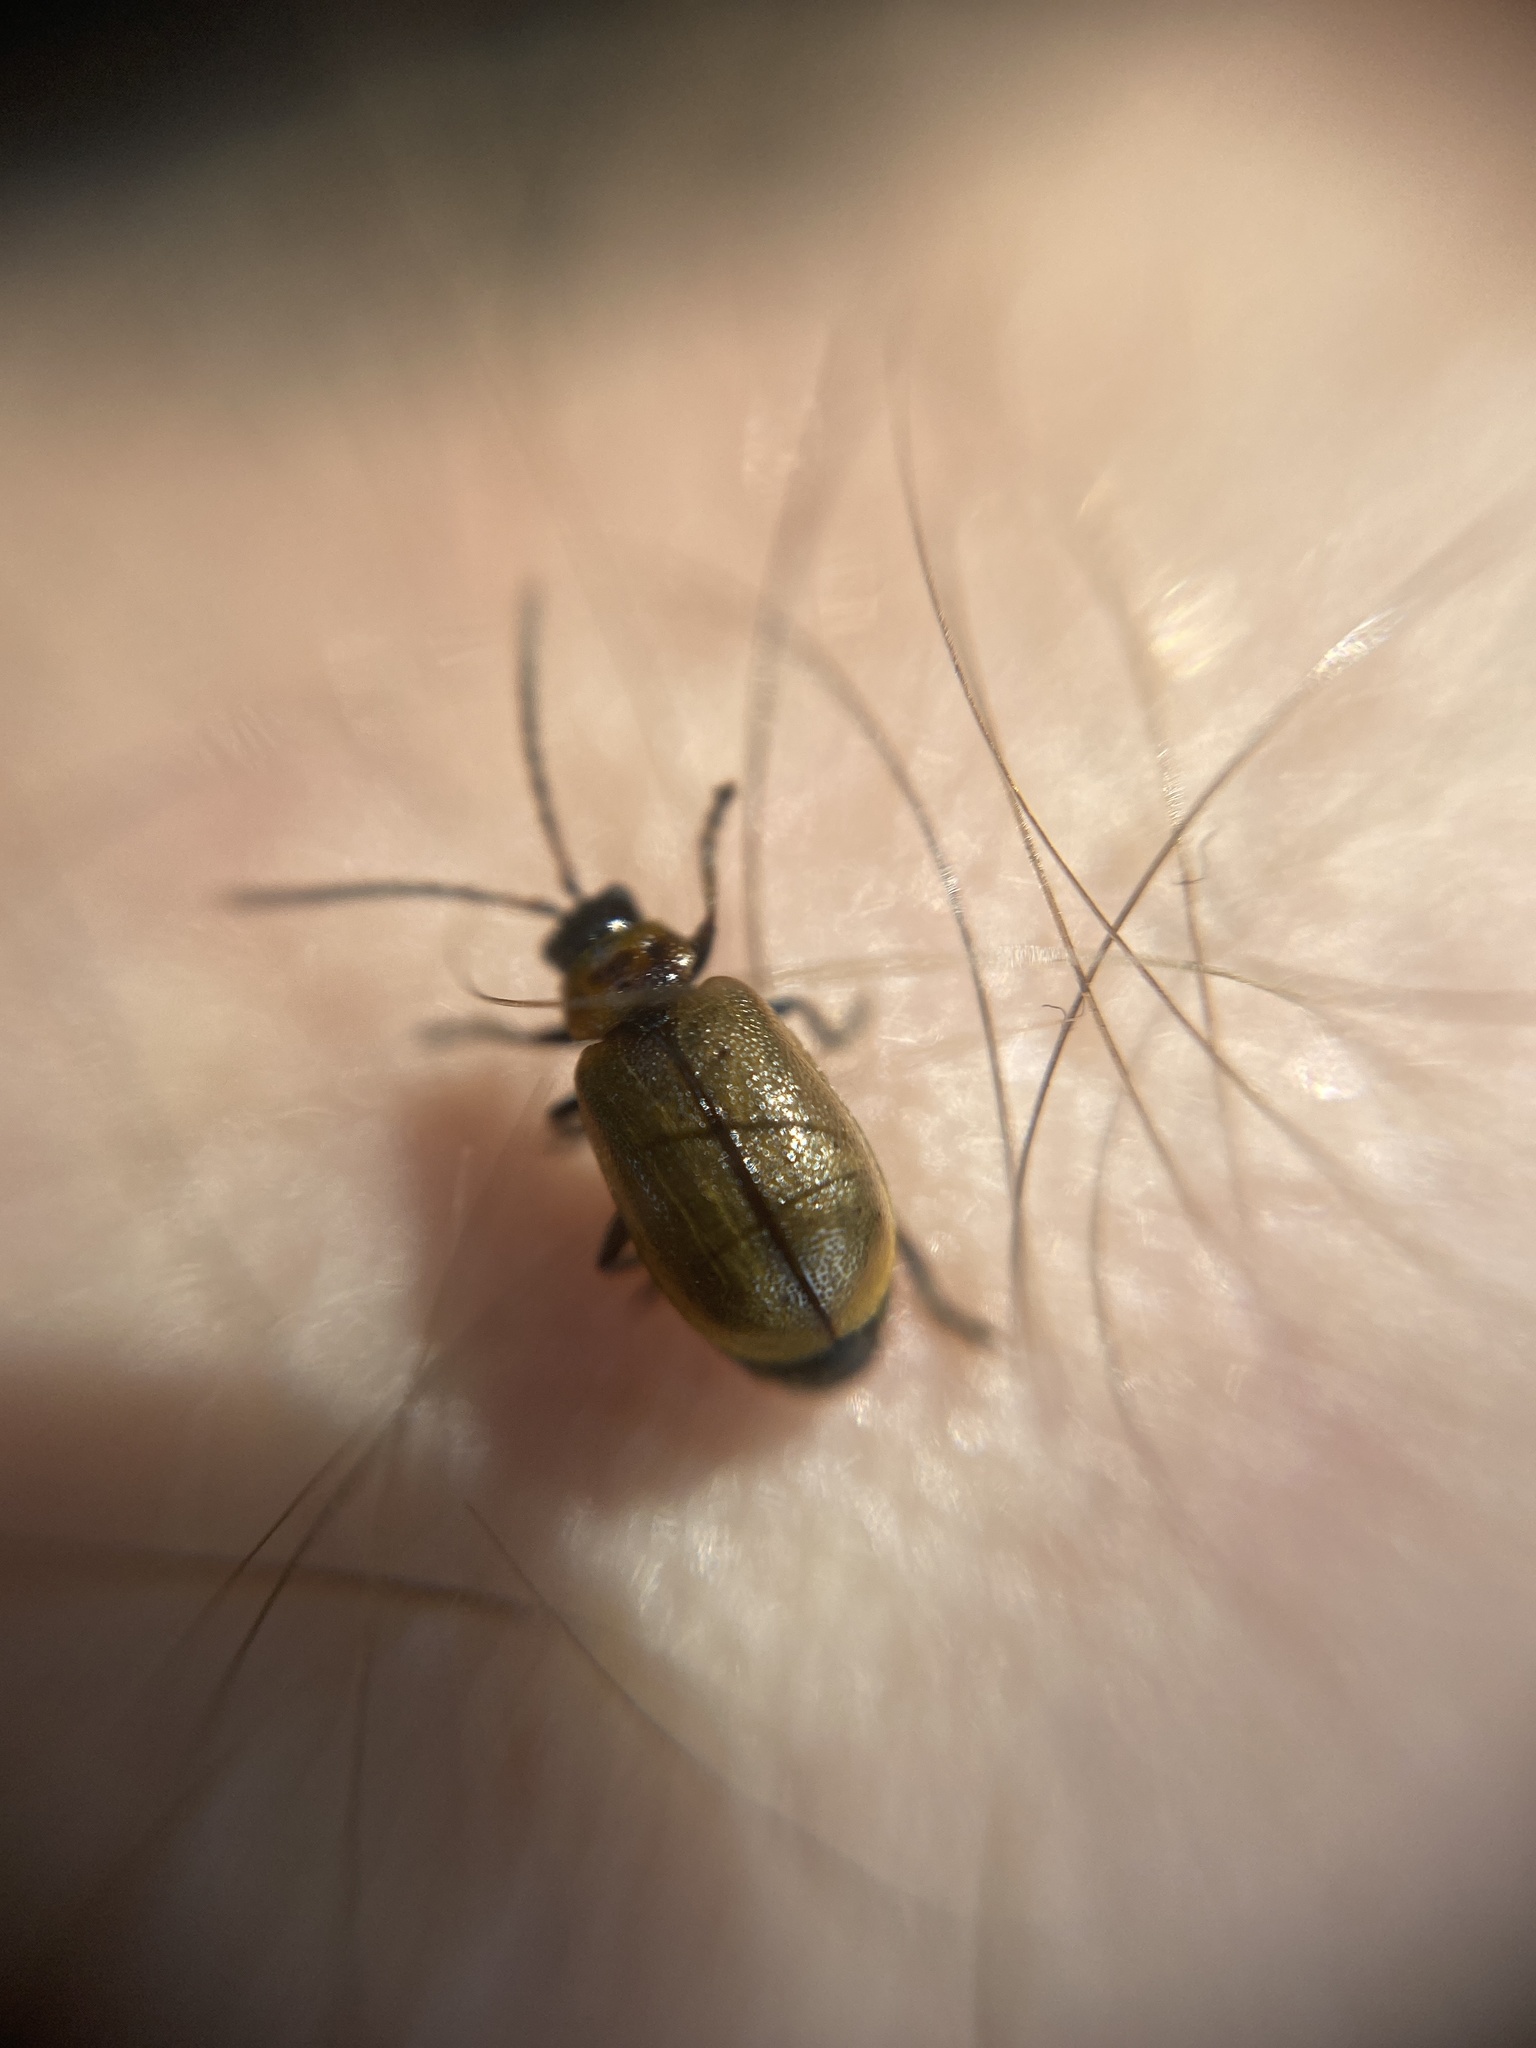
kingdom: Animalia
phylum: Arthropoda
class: Insecta
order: Coleoptera
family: Chrysomelidae
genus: Lochmaea
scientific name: Lochmaea suturalis
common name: Heather beetle
